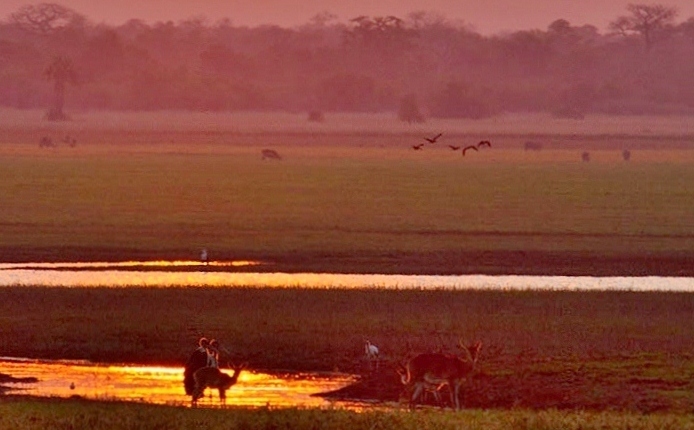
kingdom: Animalia
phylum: Chordata
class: Aves
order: Ciconiiformes
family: Ciconiidae
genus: Leptoptilos
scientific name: Leptoptilos crumenifer
